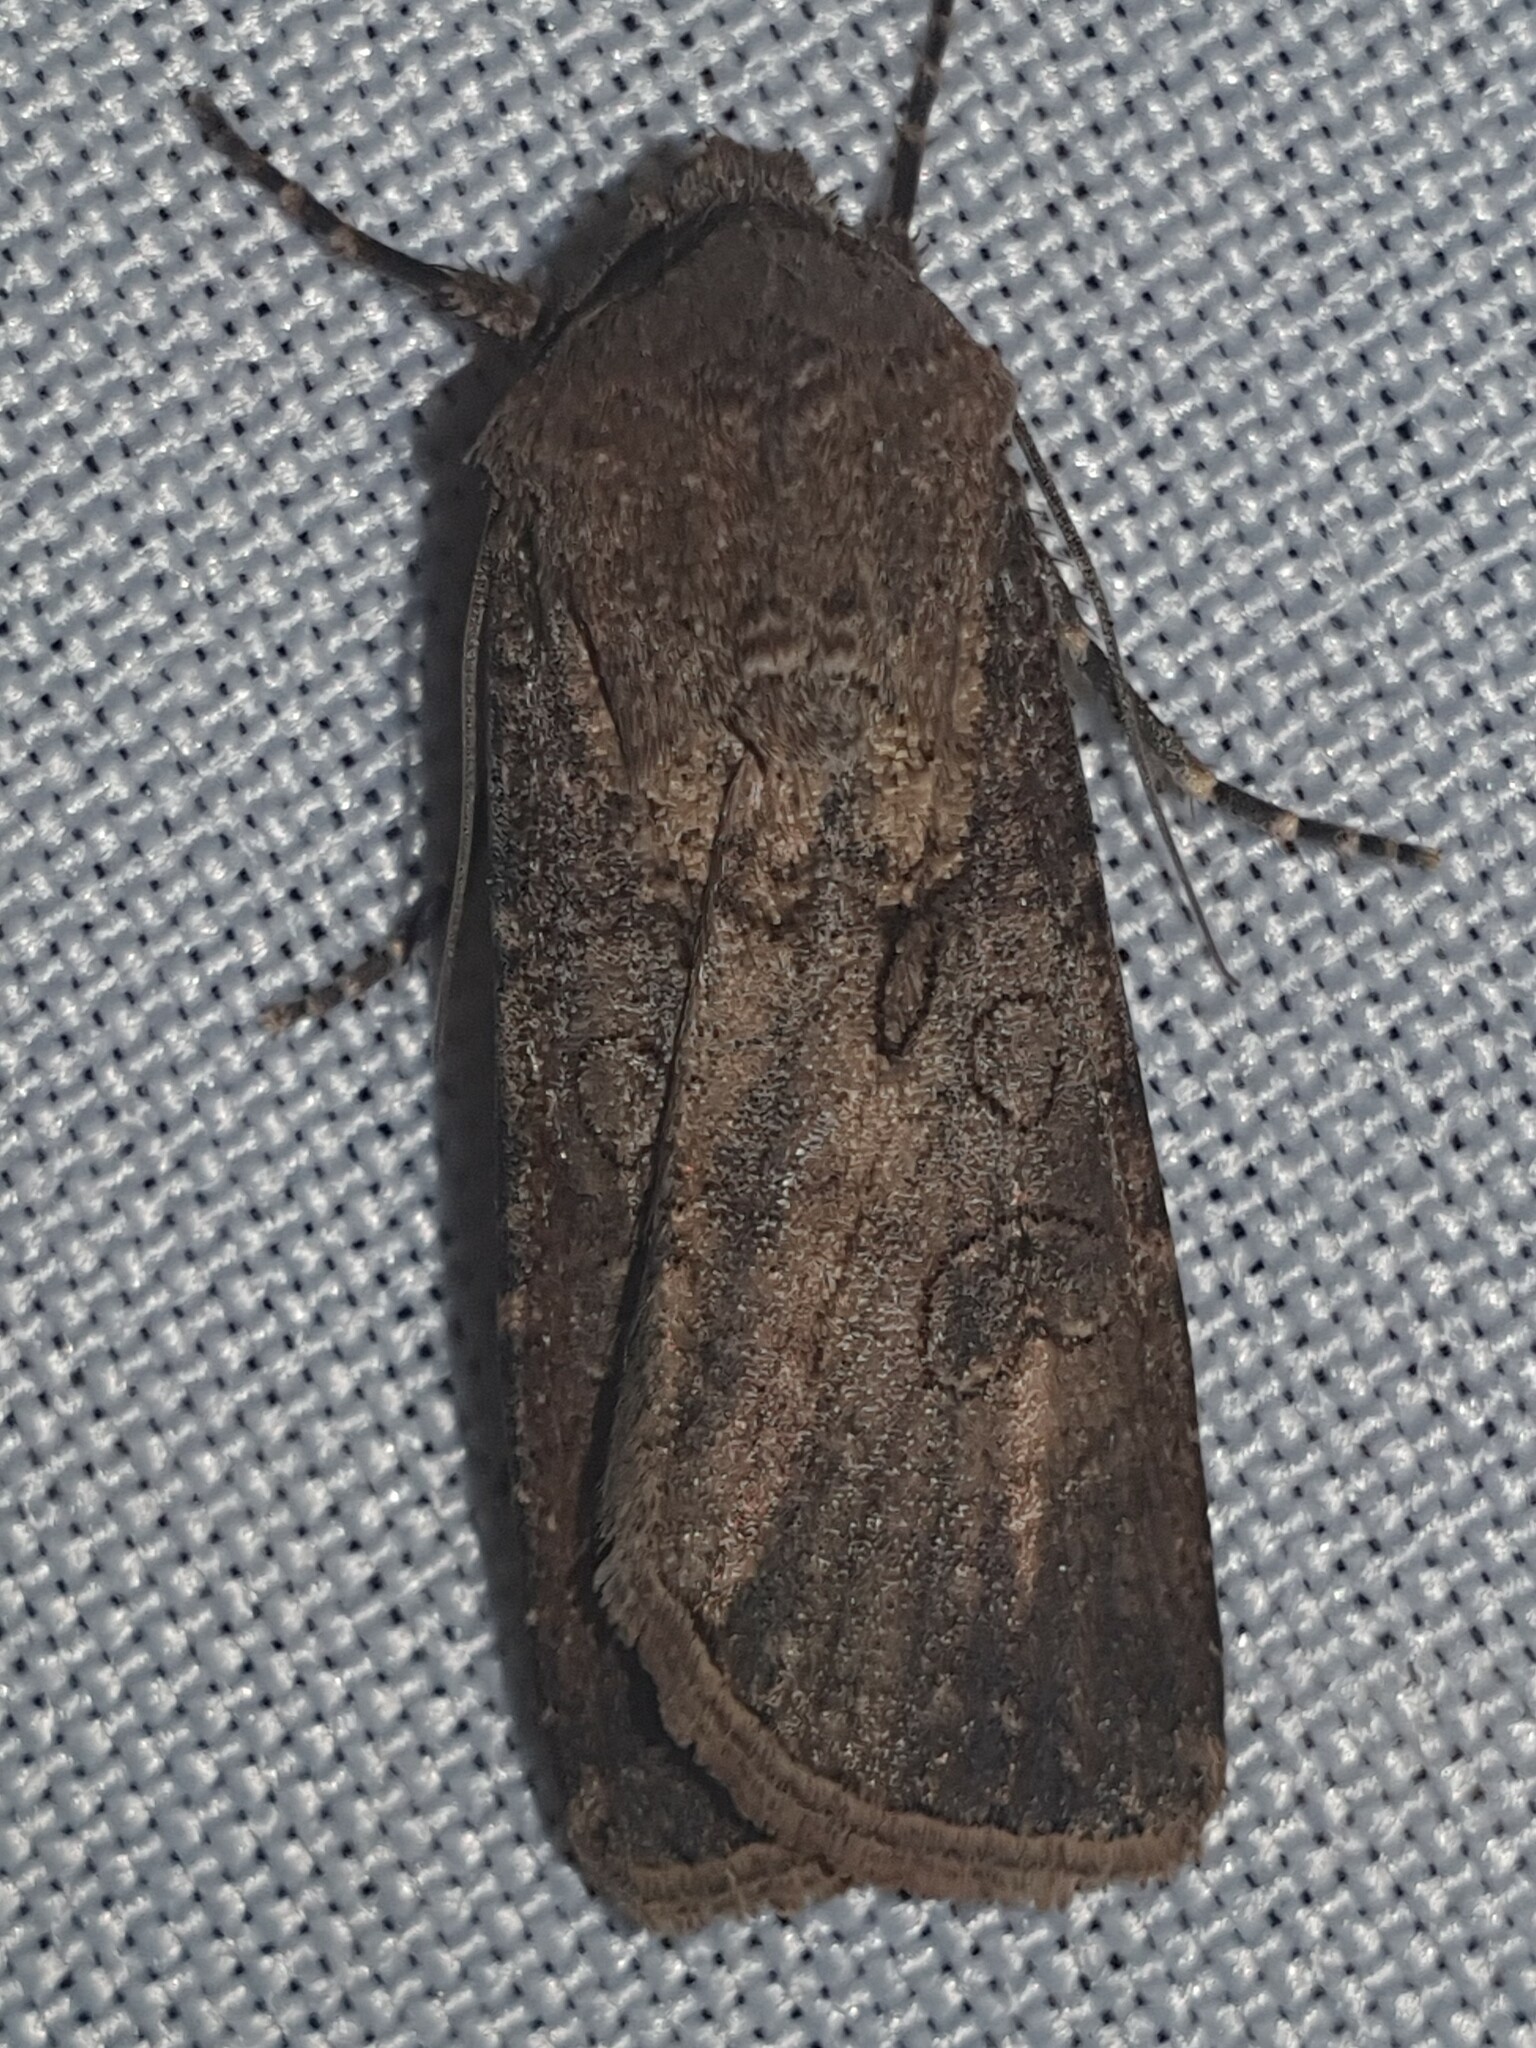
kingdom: Animalia
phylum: Arthropoda
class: Insecta
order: Lepidoptera
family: Noctuidae
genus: Agrotis
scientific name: Agrotis segetum
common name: Turnip moth
